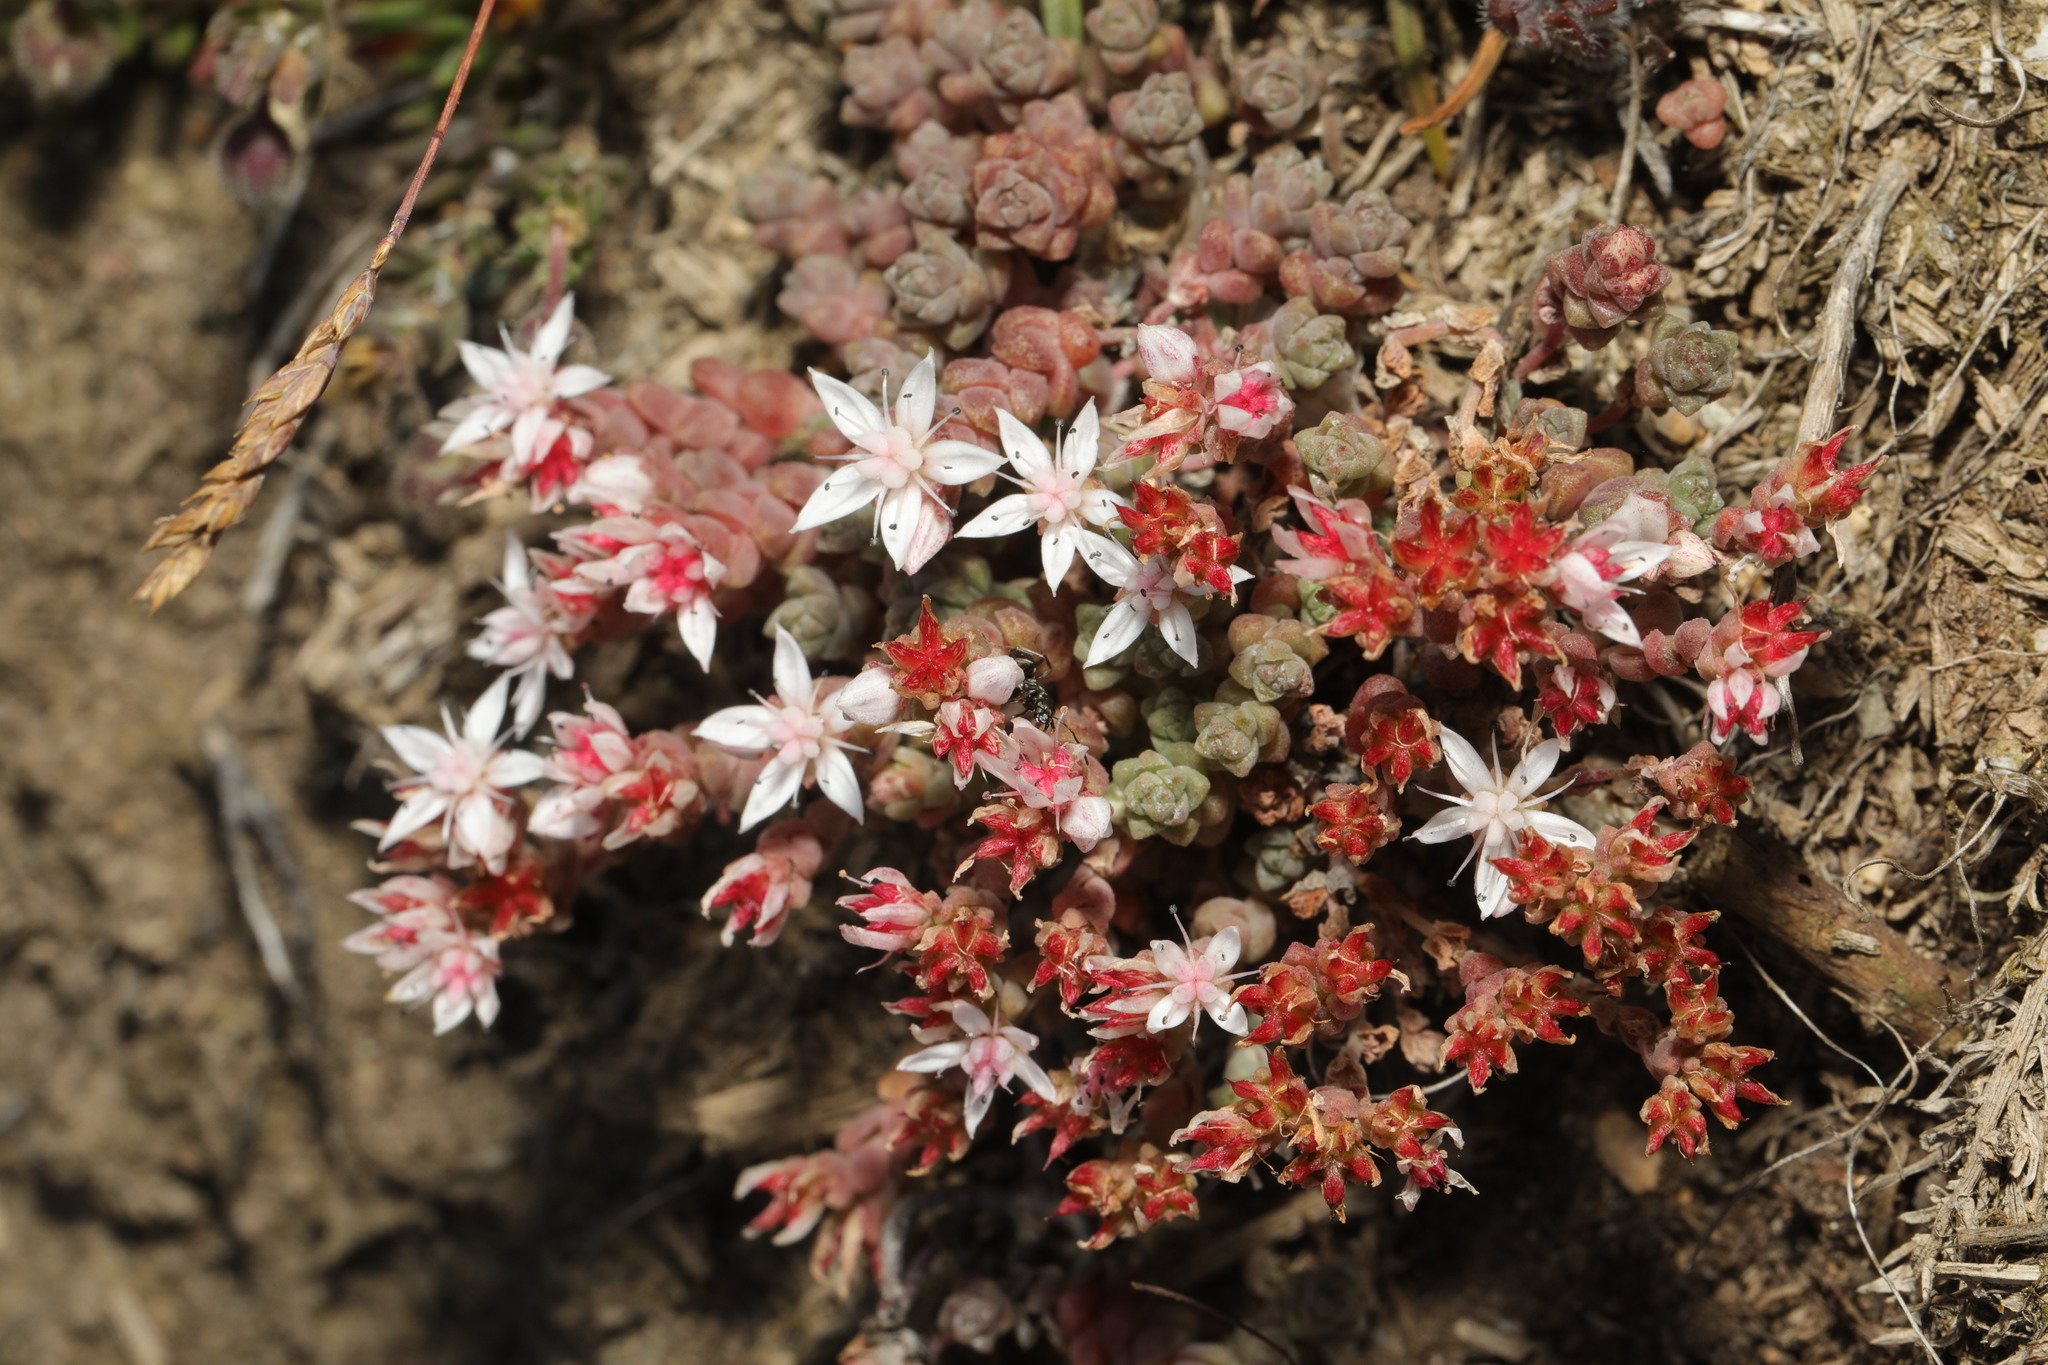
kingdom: Plantae
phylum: Tracheophyta
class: Magnoliopsida
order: Saxifragales
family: Crassulaceae
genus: Sedum
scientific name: Sedum anglicum
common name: English stonecrop
